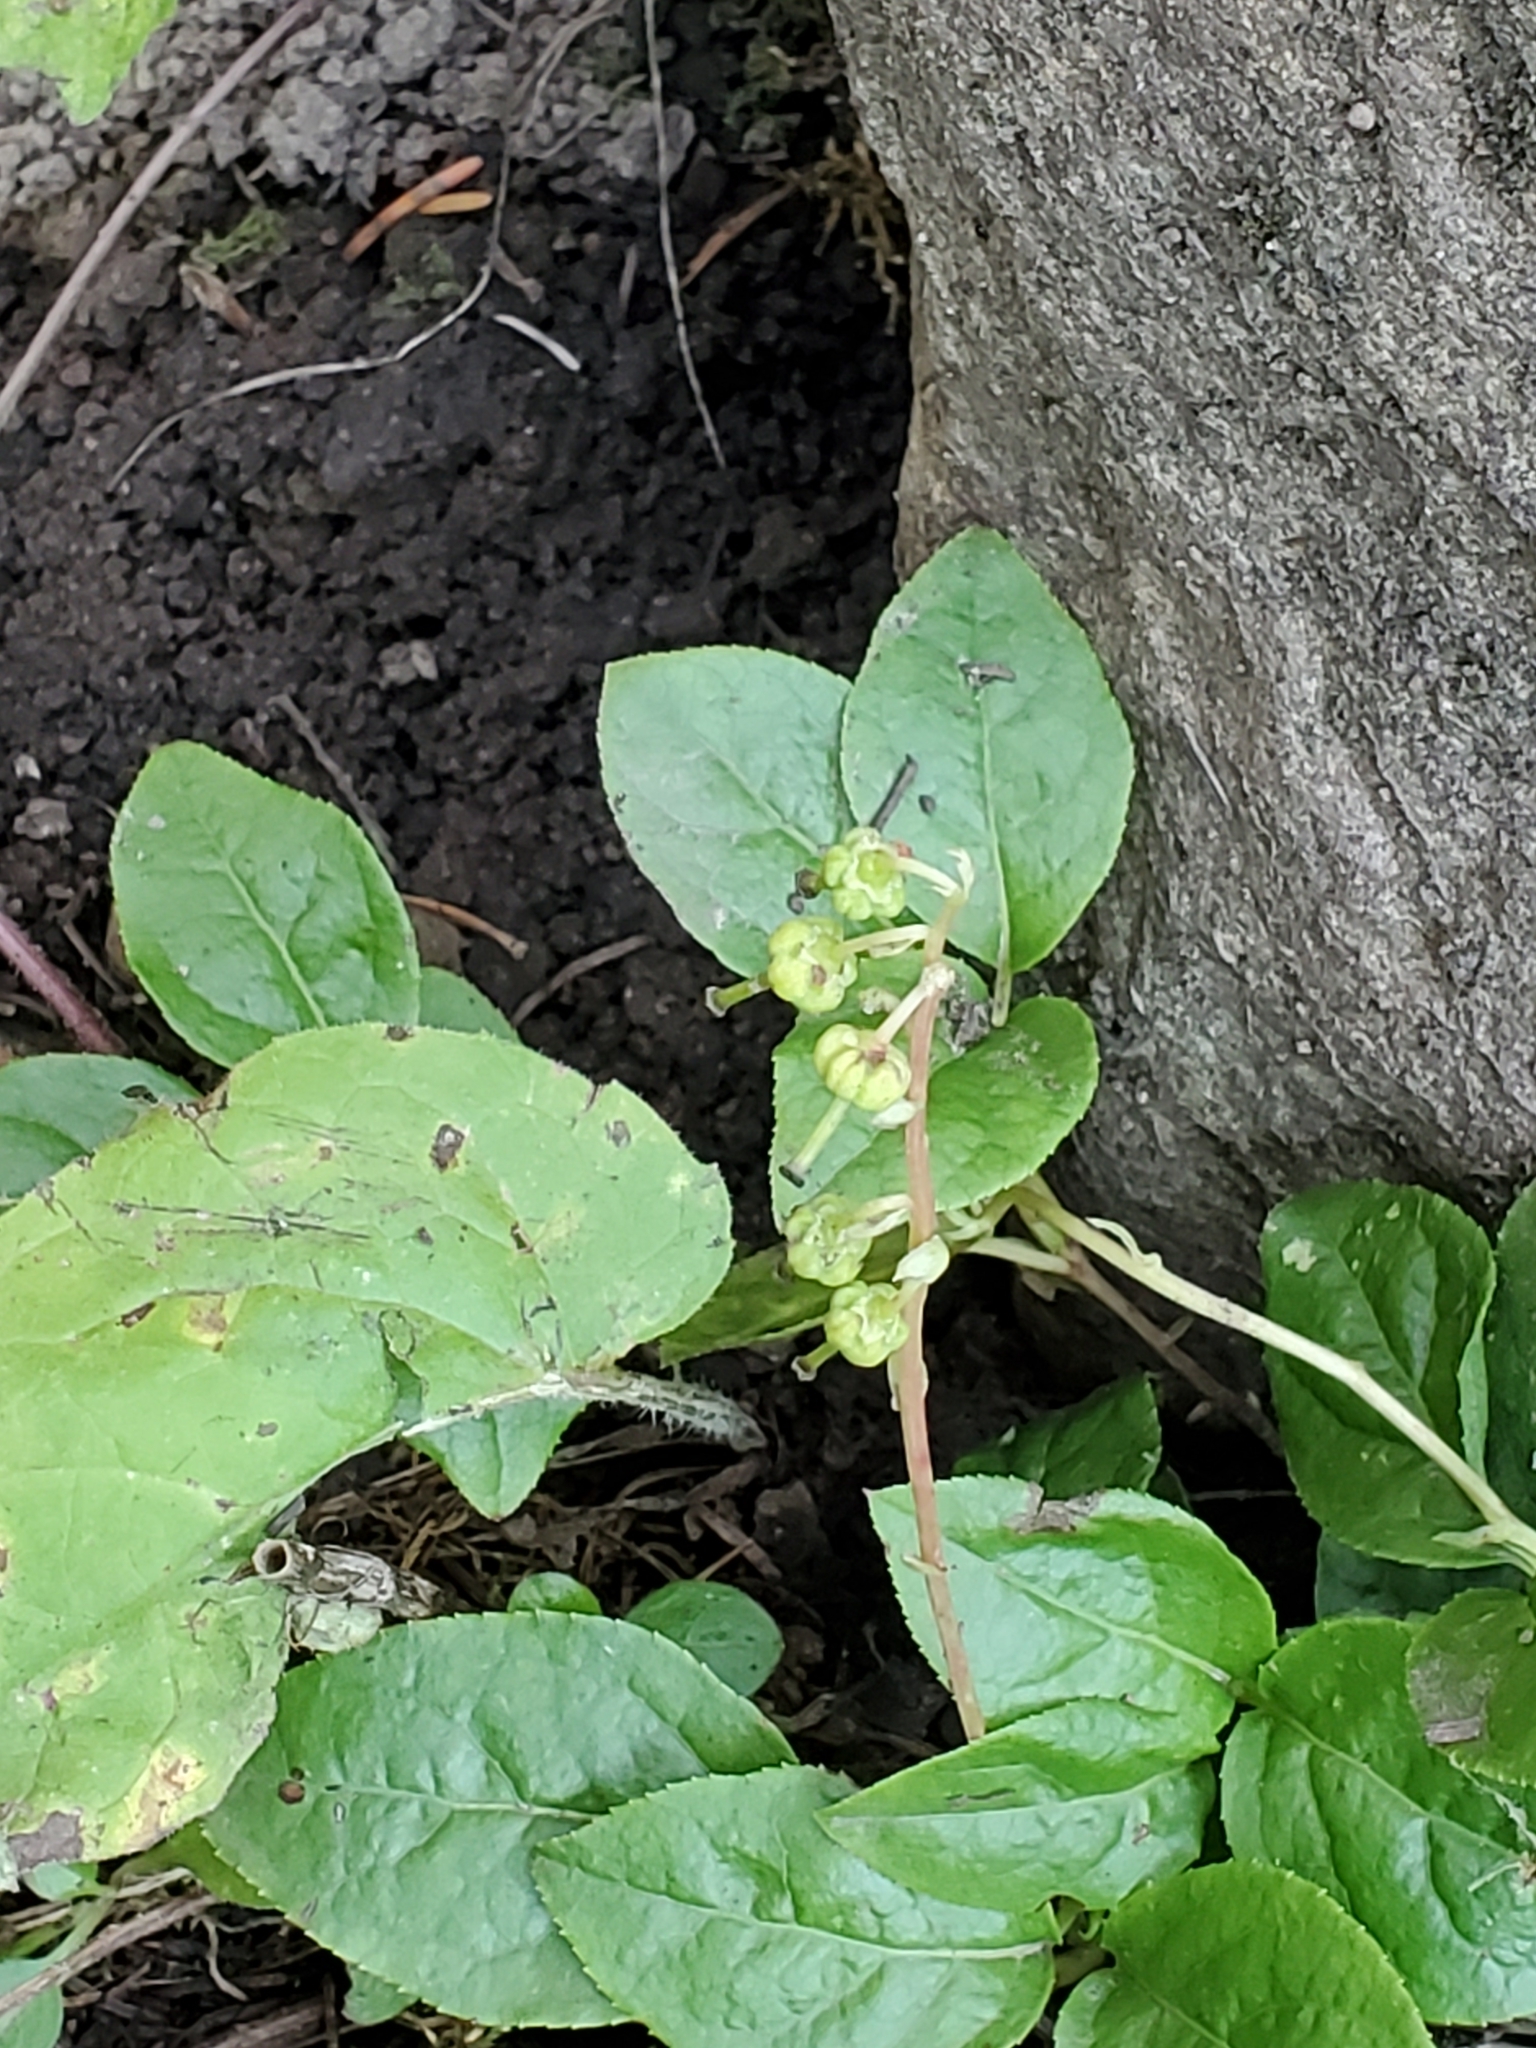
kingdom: Plantae
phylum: Tracheophyta
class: Magnoliopsida
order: Ericales
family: Ericaceae
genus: Orthilia
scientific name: Orthilia secunda
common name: One-sided orthilia
